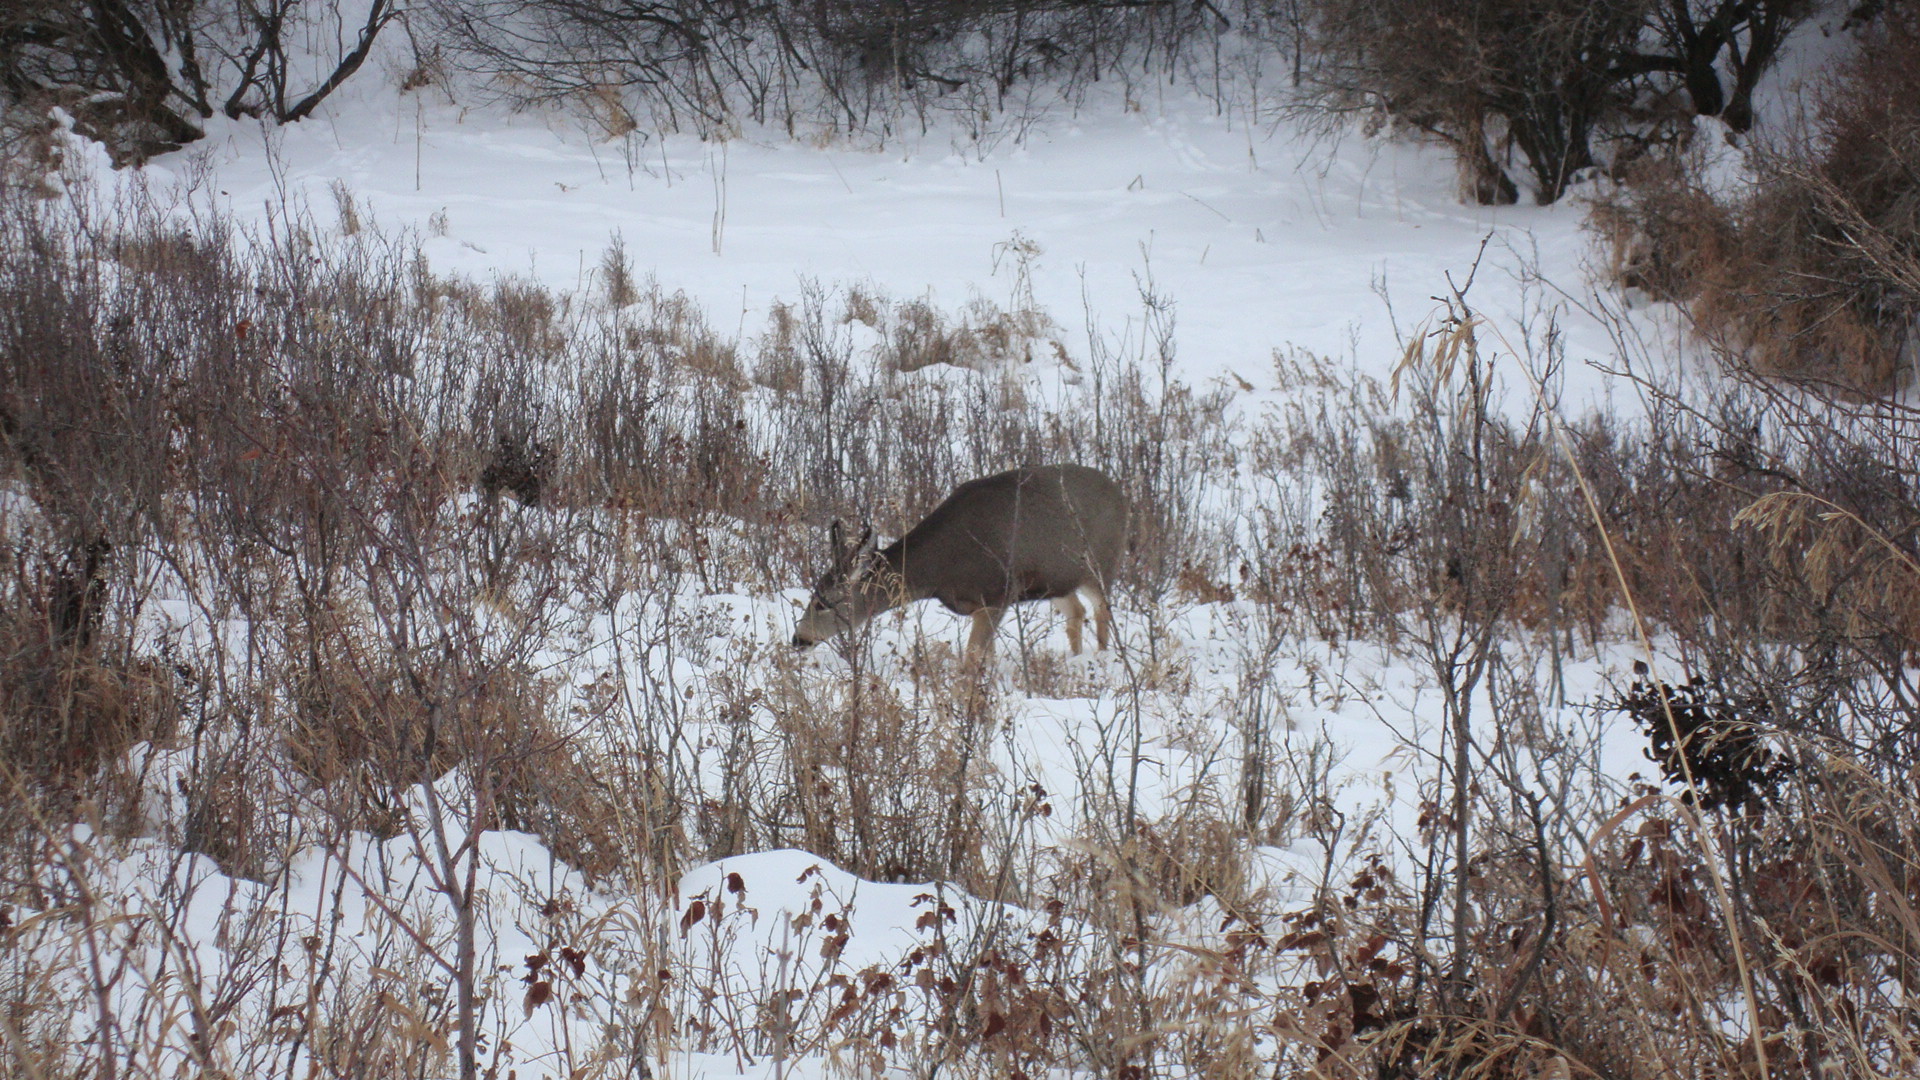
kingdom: Animalia
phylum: Chordata
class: Mammalia
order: Artiodactyla
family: Cervidae
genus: Odocoileus
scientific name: Odocoileus hemionus
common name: Mule deer
